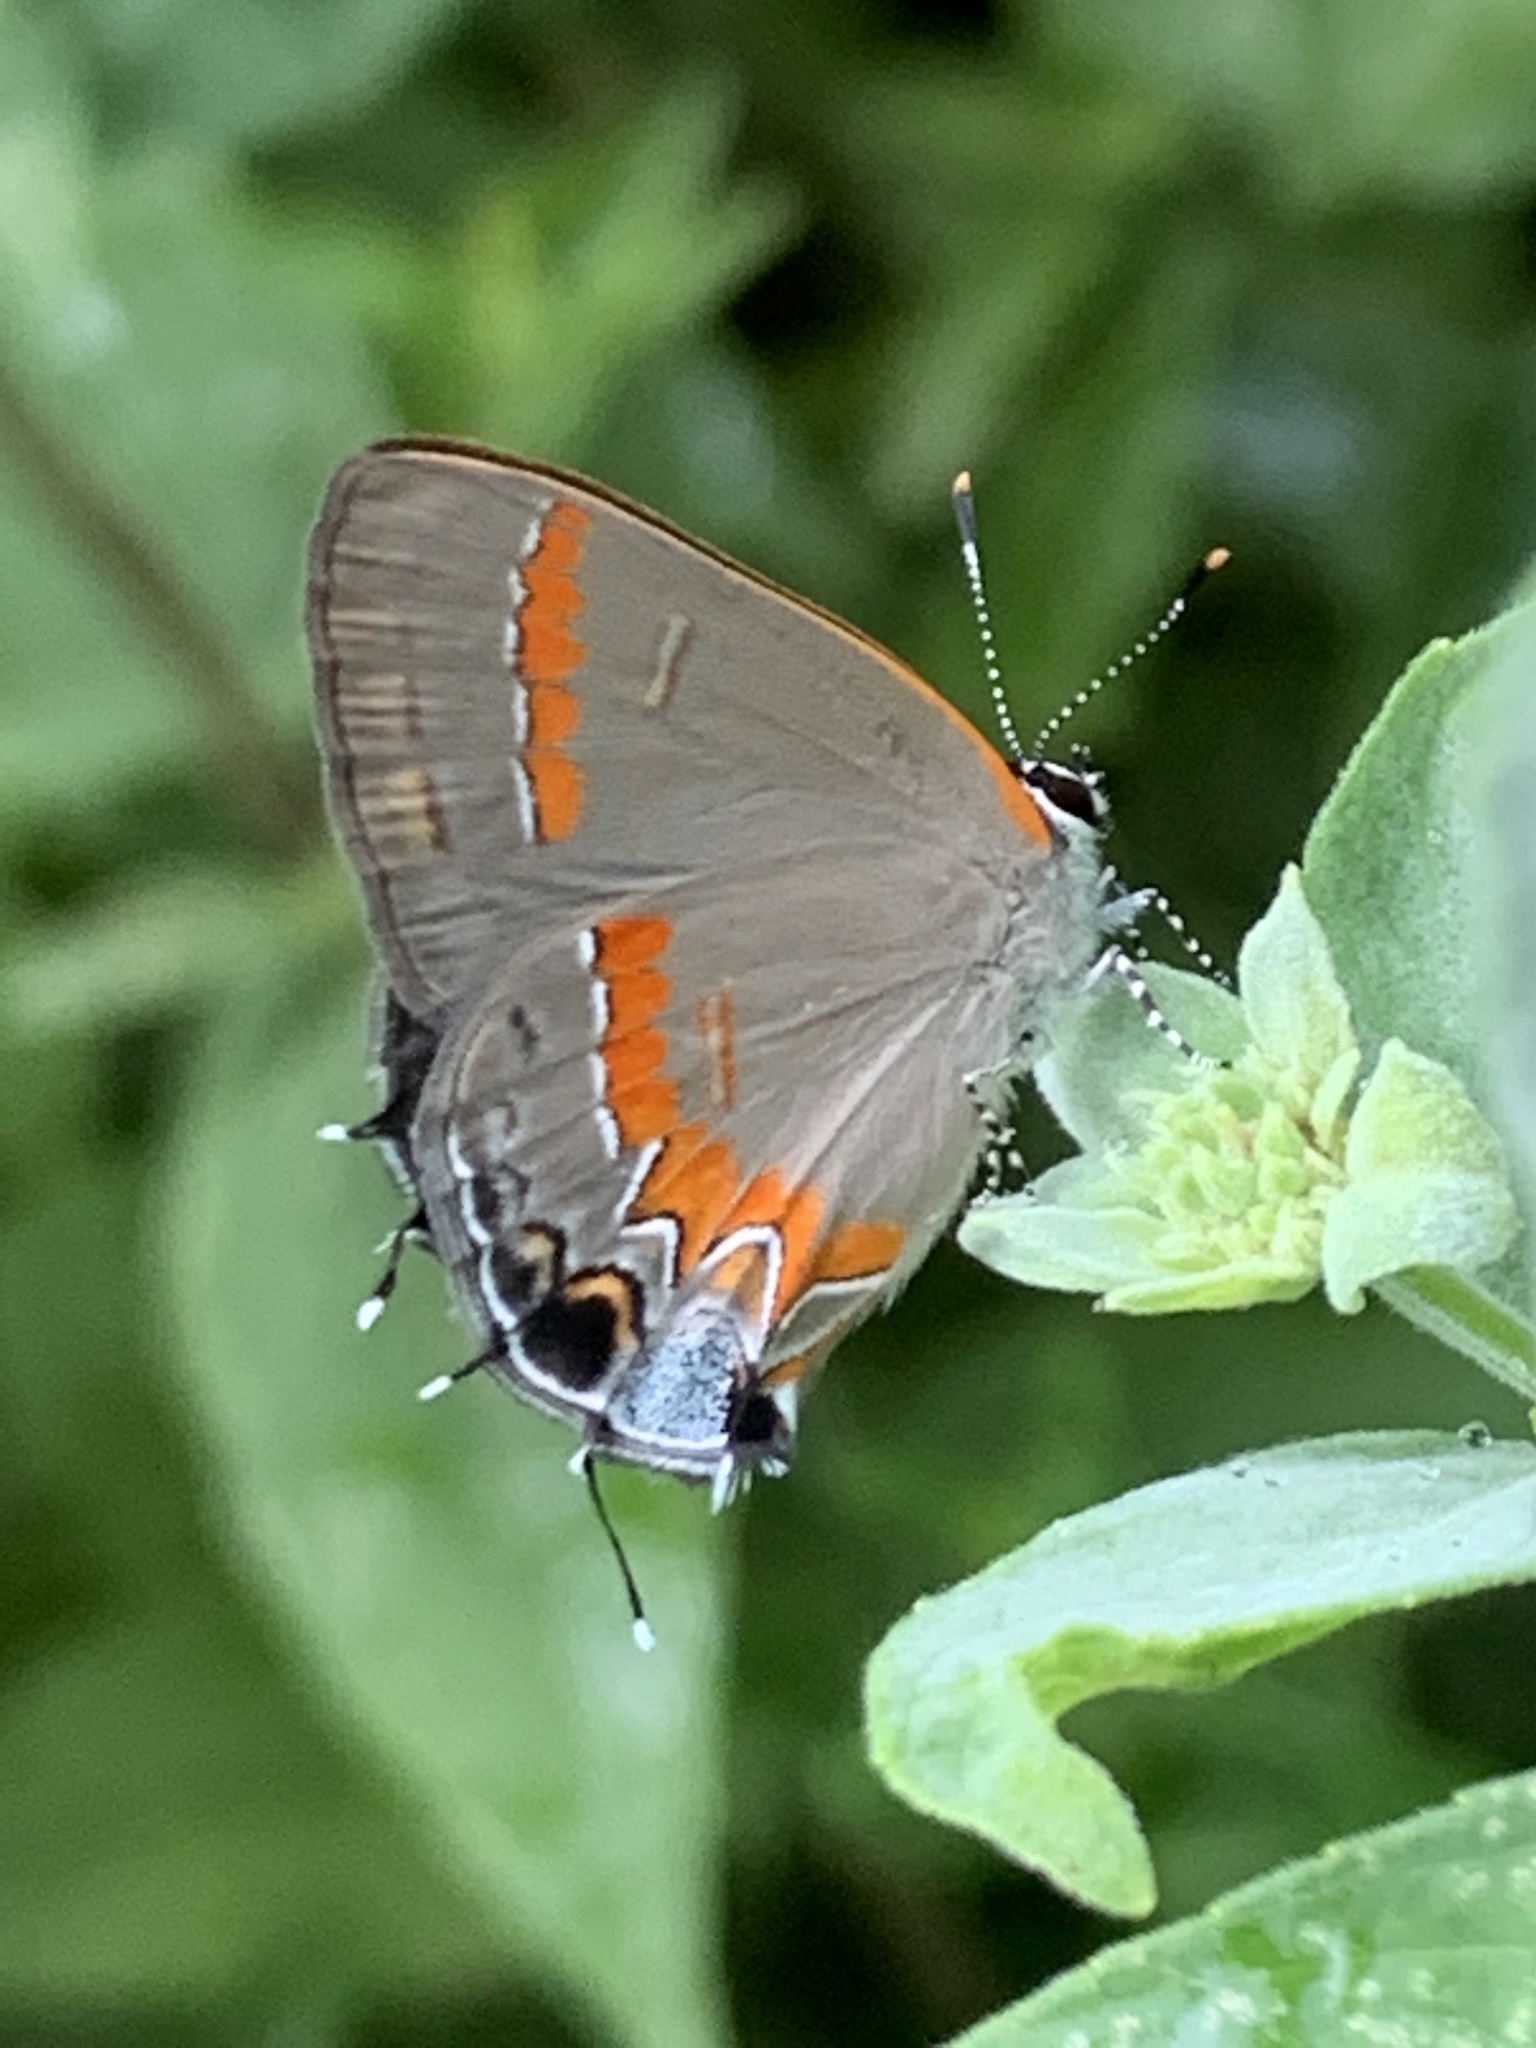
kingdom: Animalia
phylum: Arthropoda
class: Insecta
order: Lepidoptera
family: Lycaenidae
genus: Calycopis
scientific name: Calycopis cecrops
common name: Red-banded hairstreak
